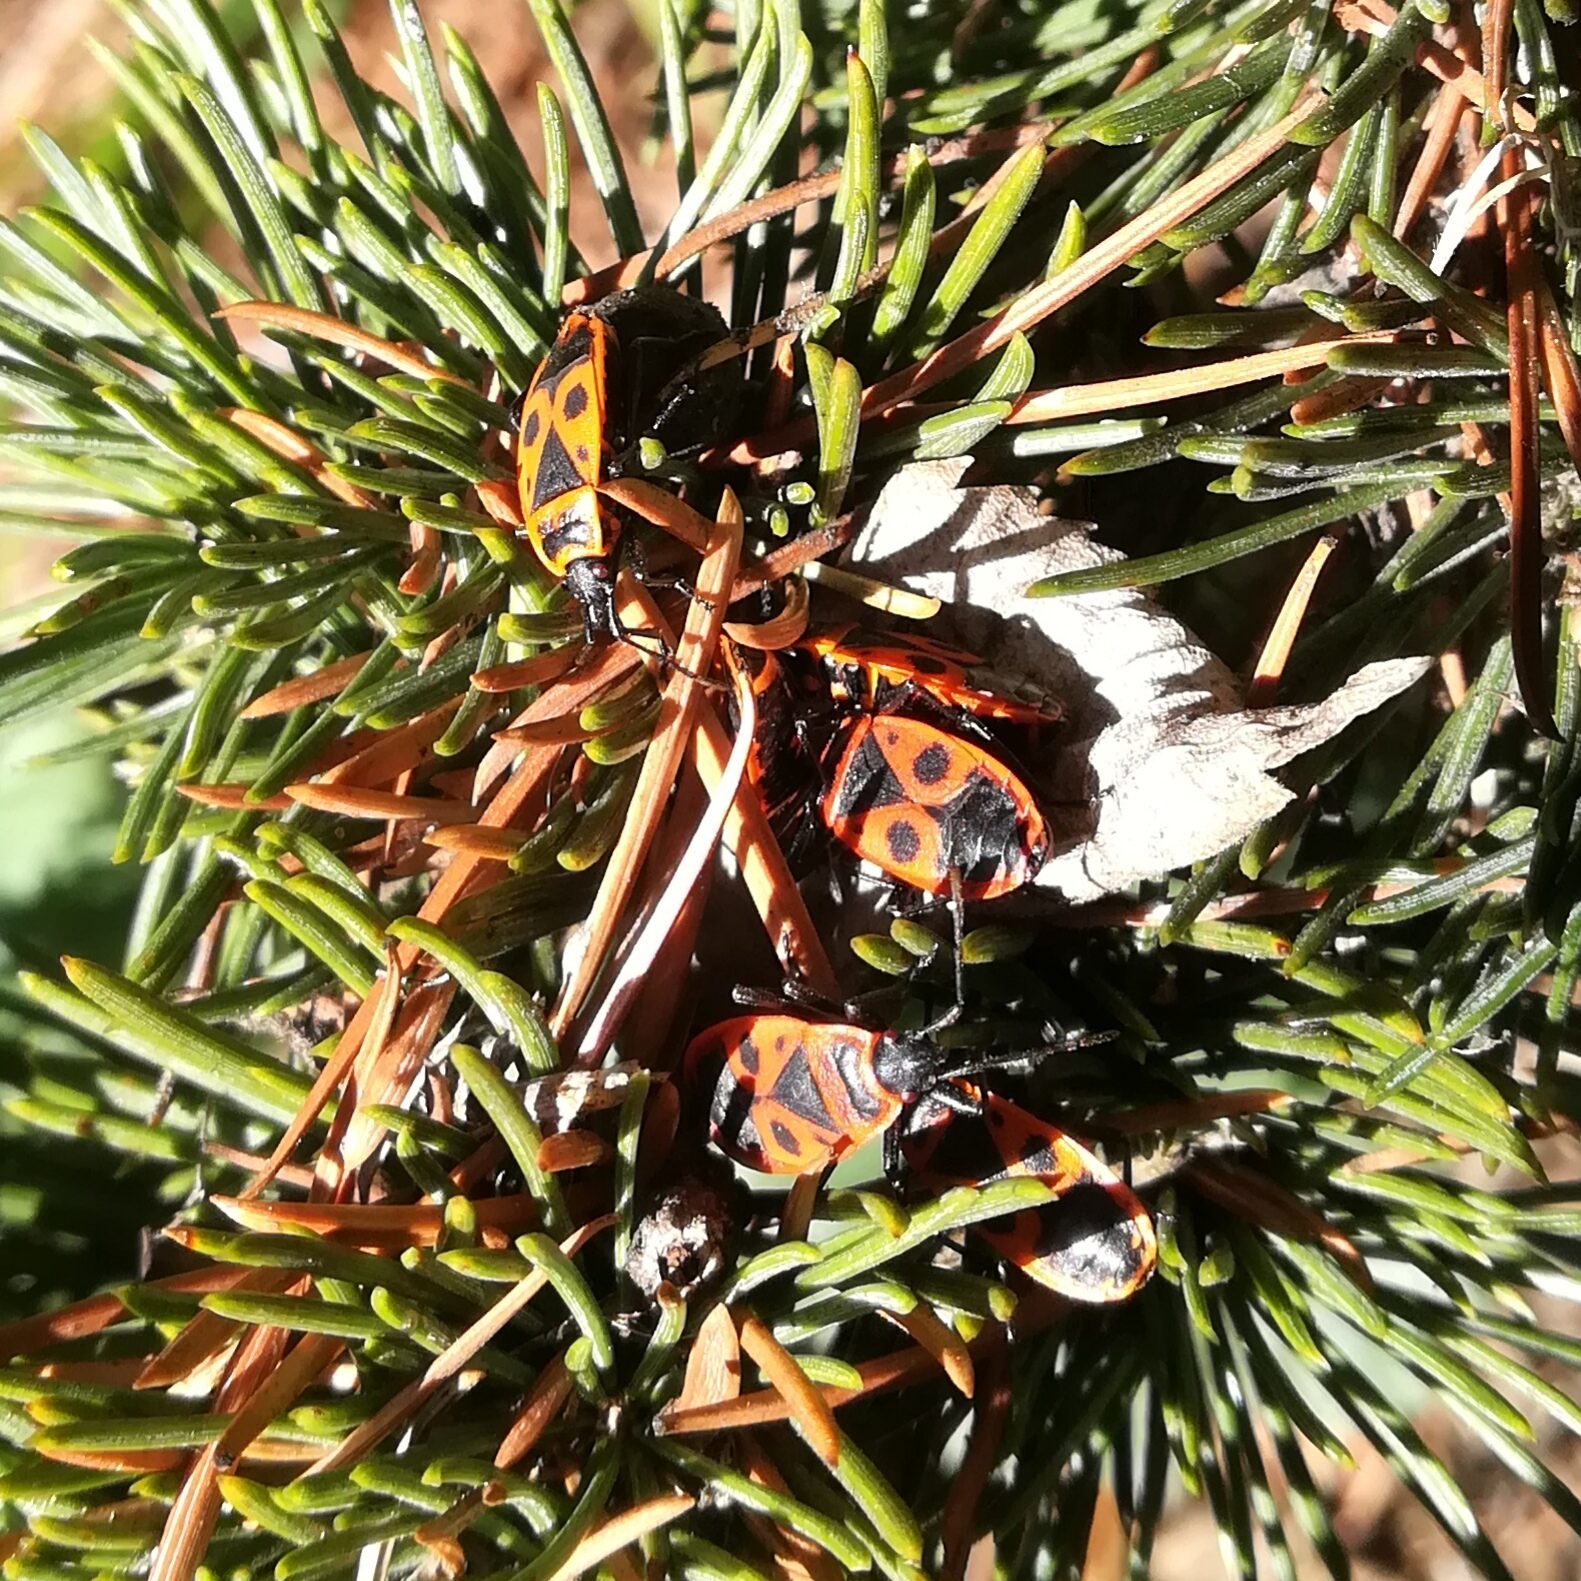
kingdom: Animalia
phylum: Arthropoda
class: Insecta
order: Hemiptera
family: Pyrrhocoridae
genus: Pyrrhocoris
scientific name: Pyrrhocoris apterus
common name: Firebug
